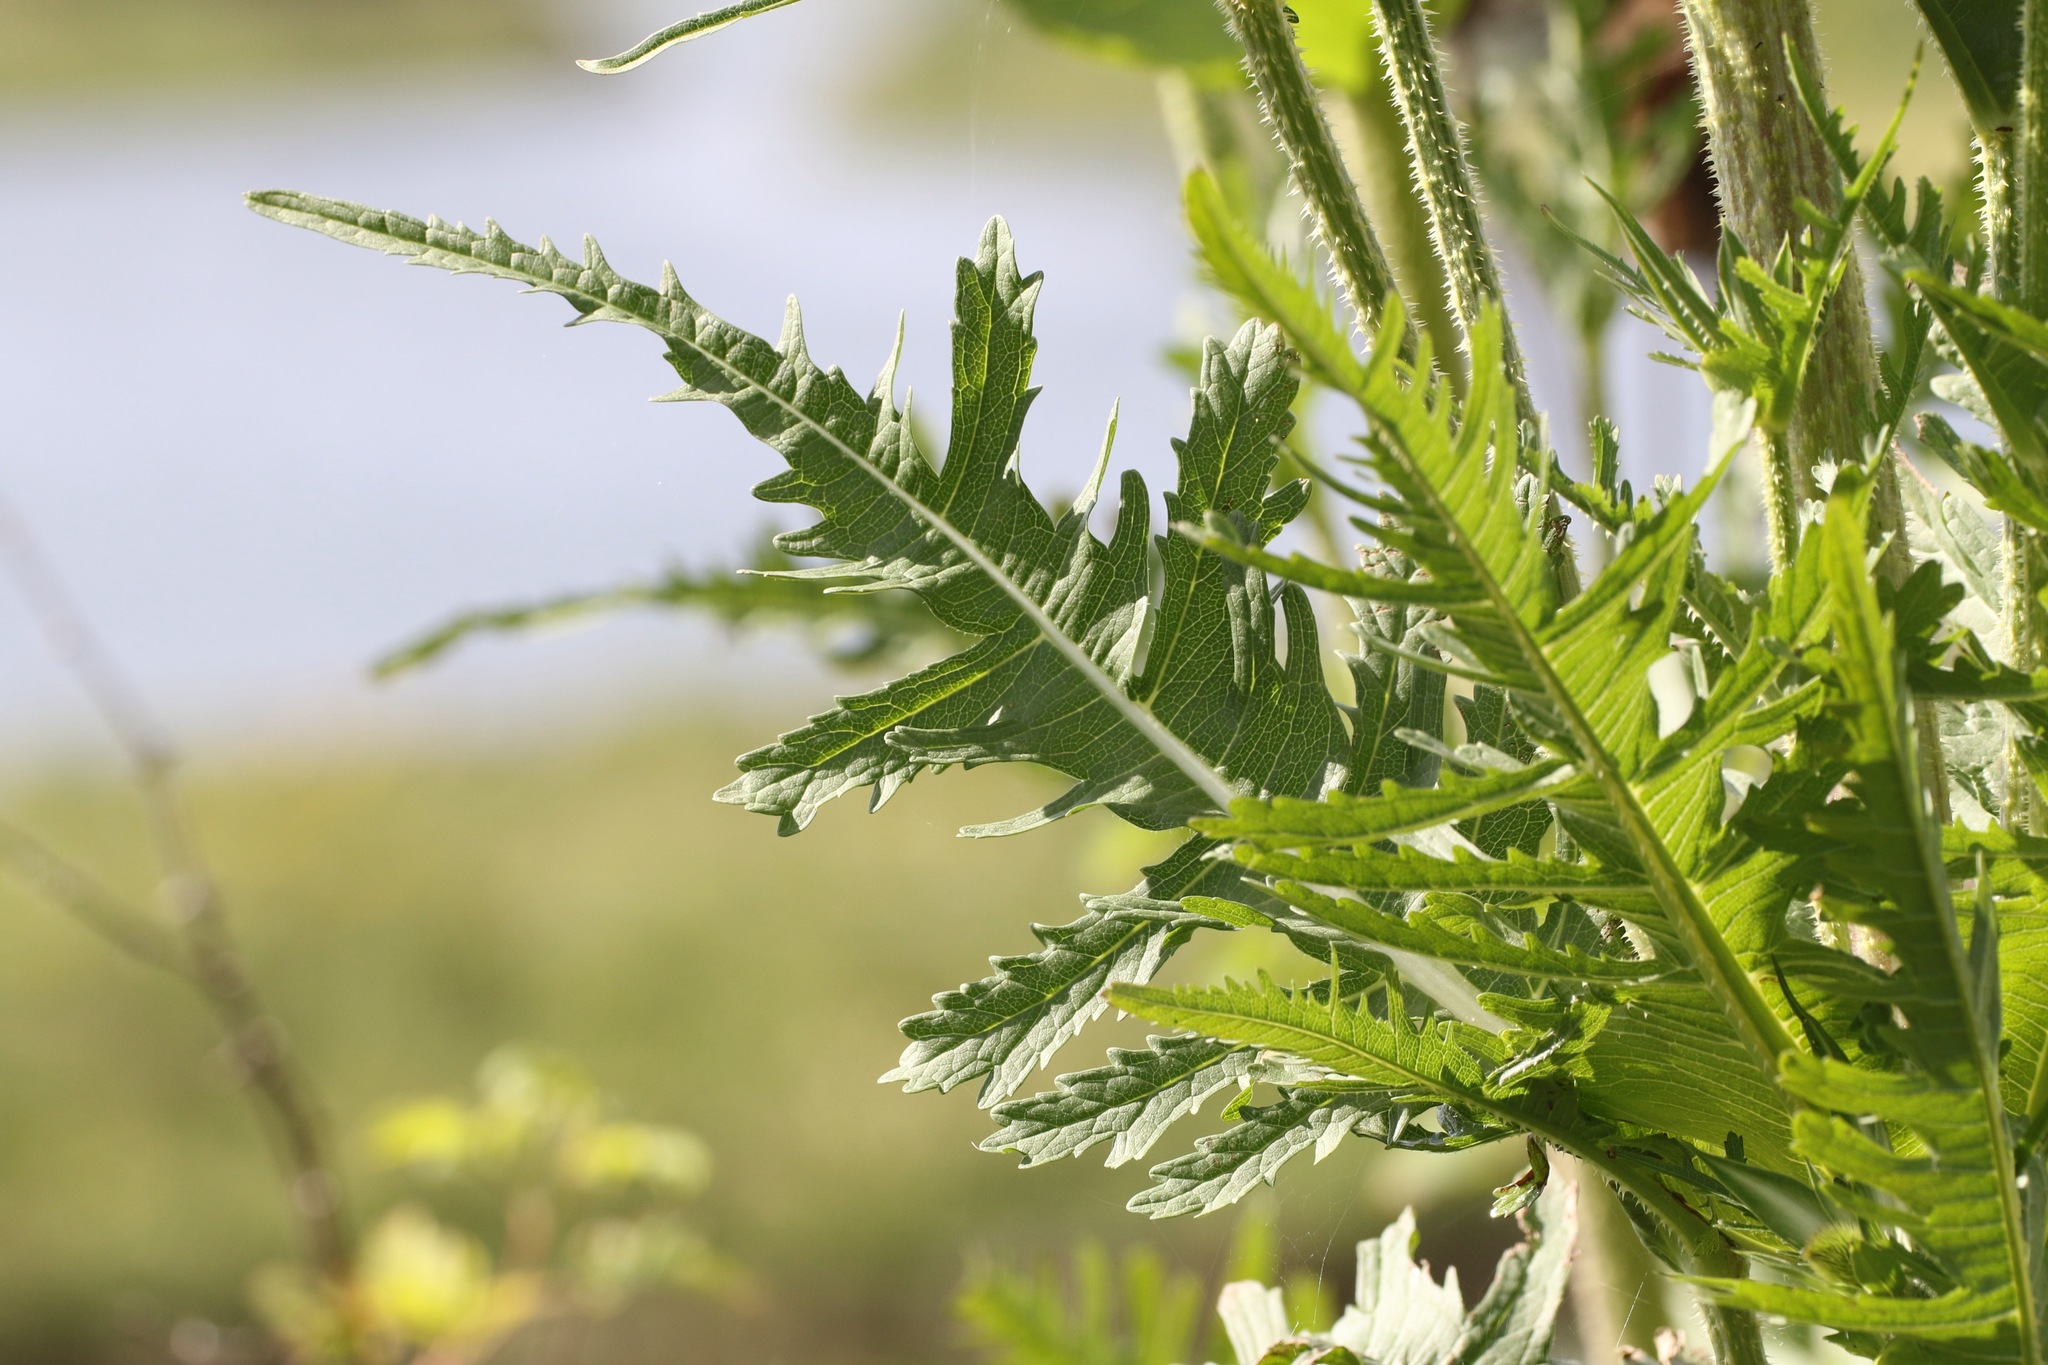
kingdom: Plantae
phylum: Tracheophyta
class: Magnoliopsida
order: Dipsacales
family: Caprifoliaceae
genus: Dipsacus
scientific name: Dipsacus laciniatus
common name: Cut-leaved teasel
